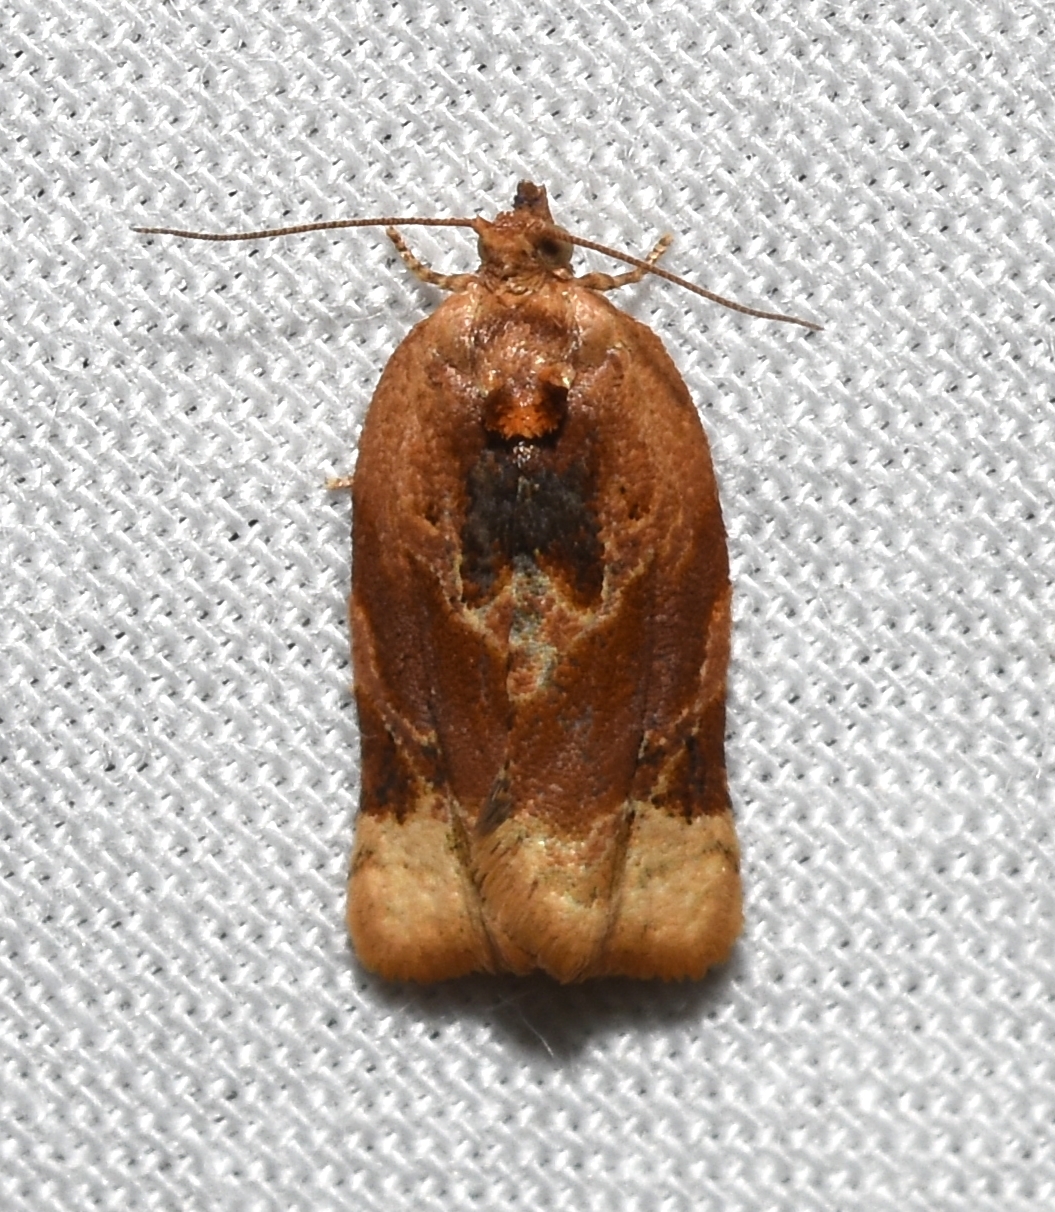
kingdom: Animalia
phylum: Arthropoda
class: Insecta
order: Lepidoptera
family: Tortricidae
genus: Argyrotaenia
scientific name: Argyrotaenia velutinana
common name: Red-banded leafroller moth
